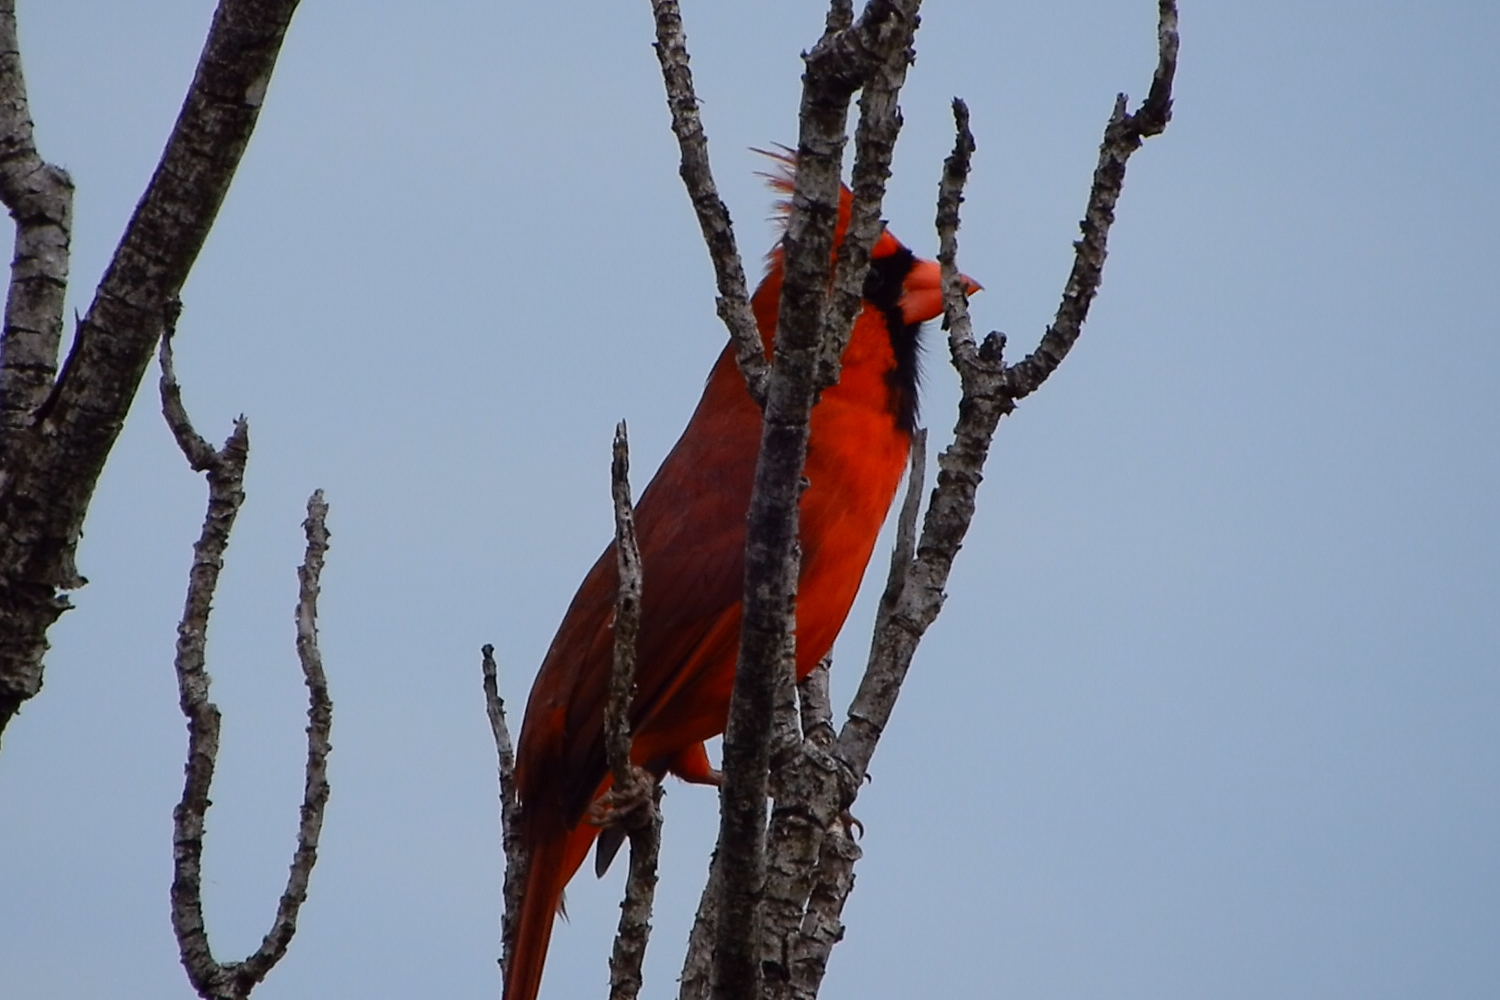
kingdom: Animalia
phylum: Chordata
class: Aves
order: Passeriformes
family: Cardinalidae
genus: Cardinalis
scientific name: Cardinalis cardinalis
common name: Northern cardinal
